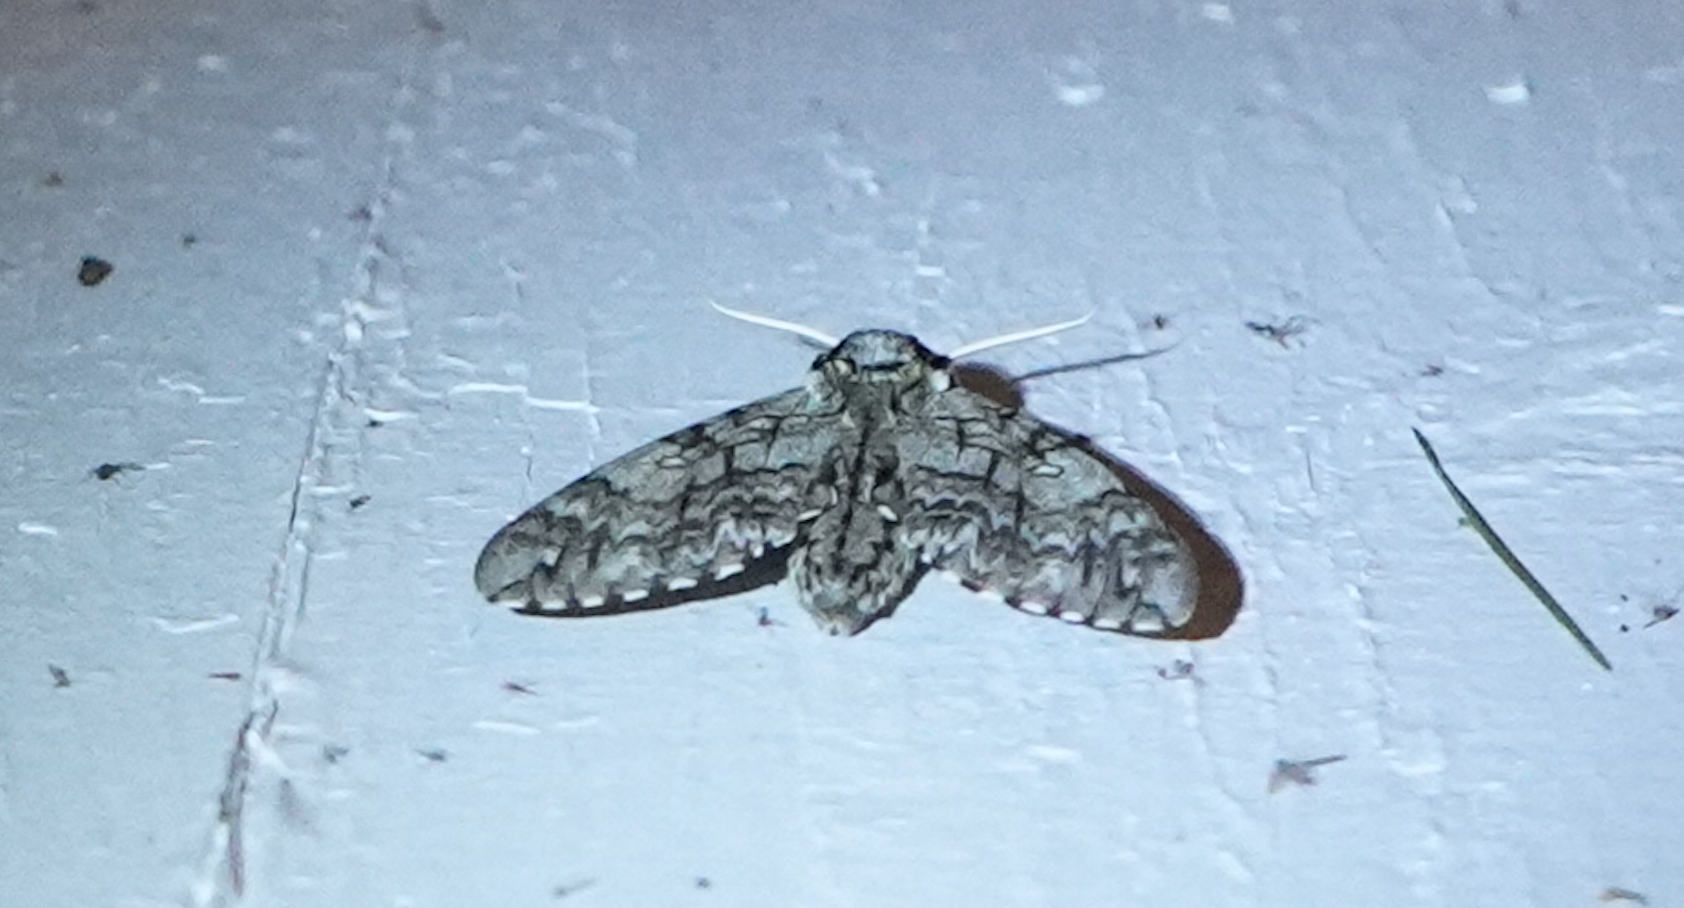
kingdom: Animalia
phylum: Arthropoda
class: Insecta
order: Lepidoptera
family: Sphingidae
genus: Ceratomia
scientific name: Ceratomia undulosa
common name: Waved sphinx
